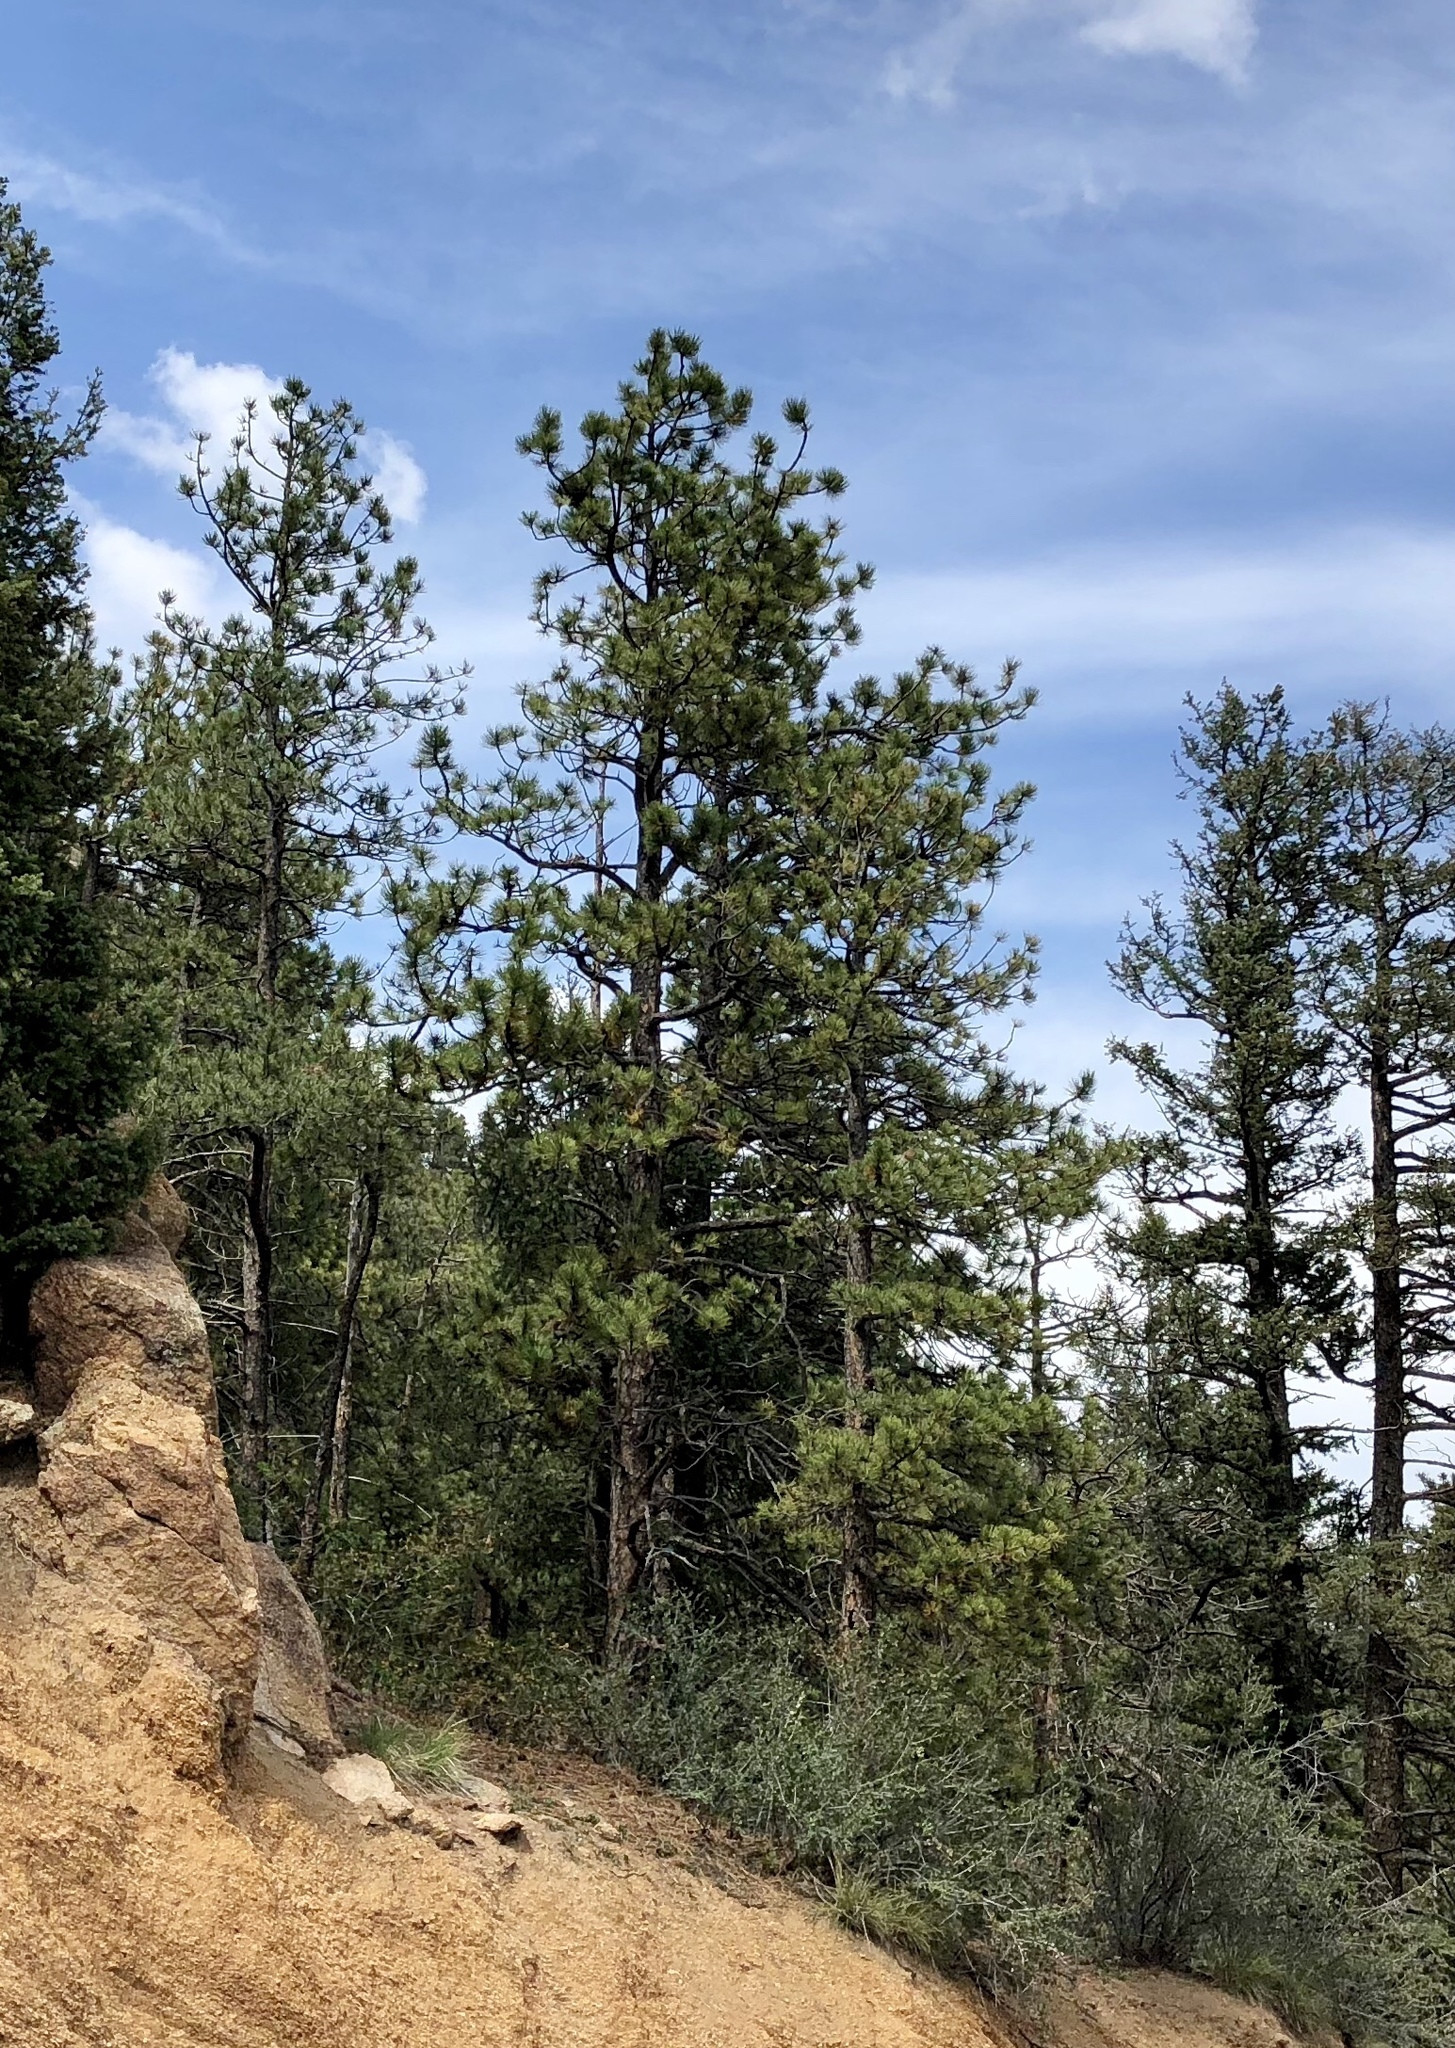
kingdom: Plantae
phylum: Tracheophyta
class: Pinopsida
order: Pinales
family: Pinaceae
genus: Pinus
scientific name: Pinus ponderosa
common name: Western yellow-pine
